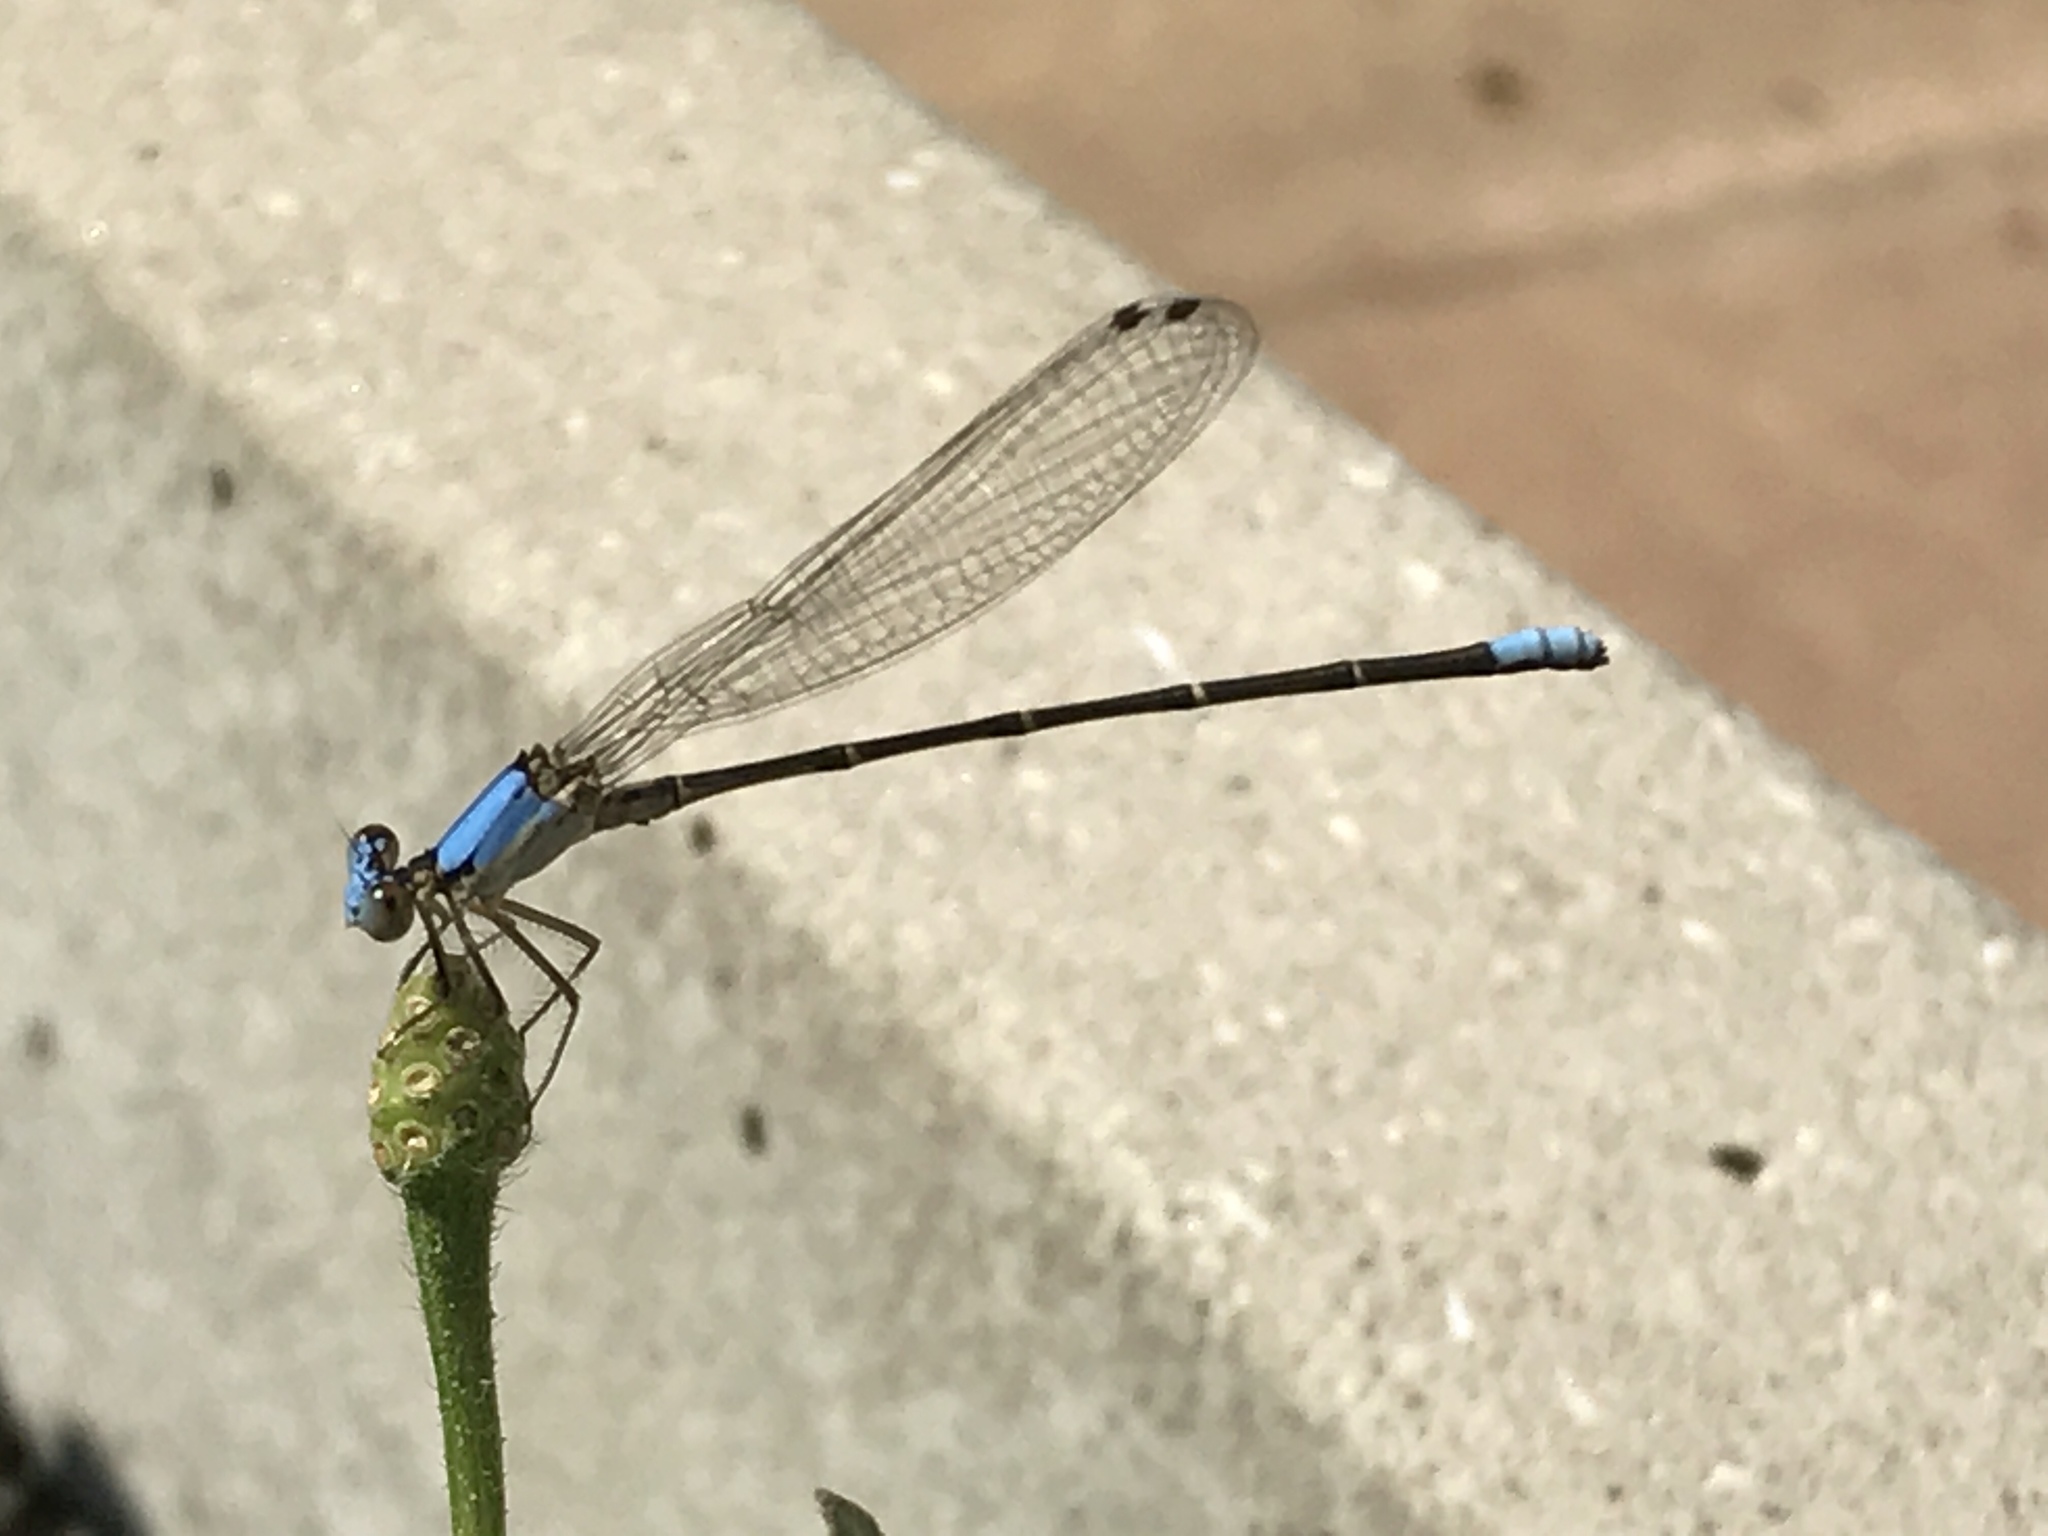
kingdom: Animalia
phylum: Arthropoda
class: Insecta
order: Odonata
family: Coenagrionidae
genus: Argia
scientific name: Argia apicalis
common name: Blue-fronted dancer
